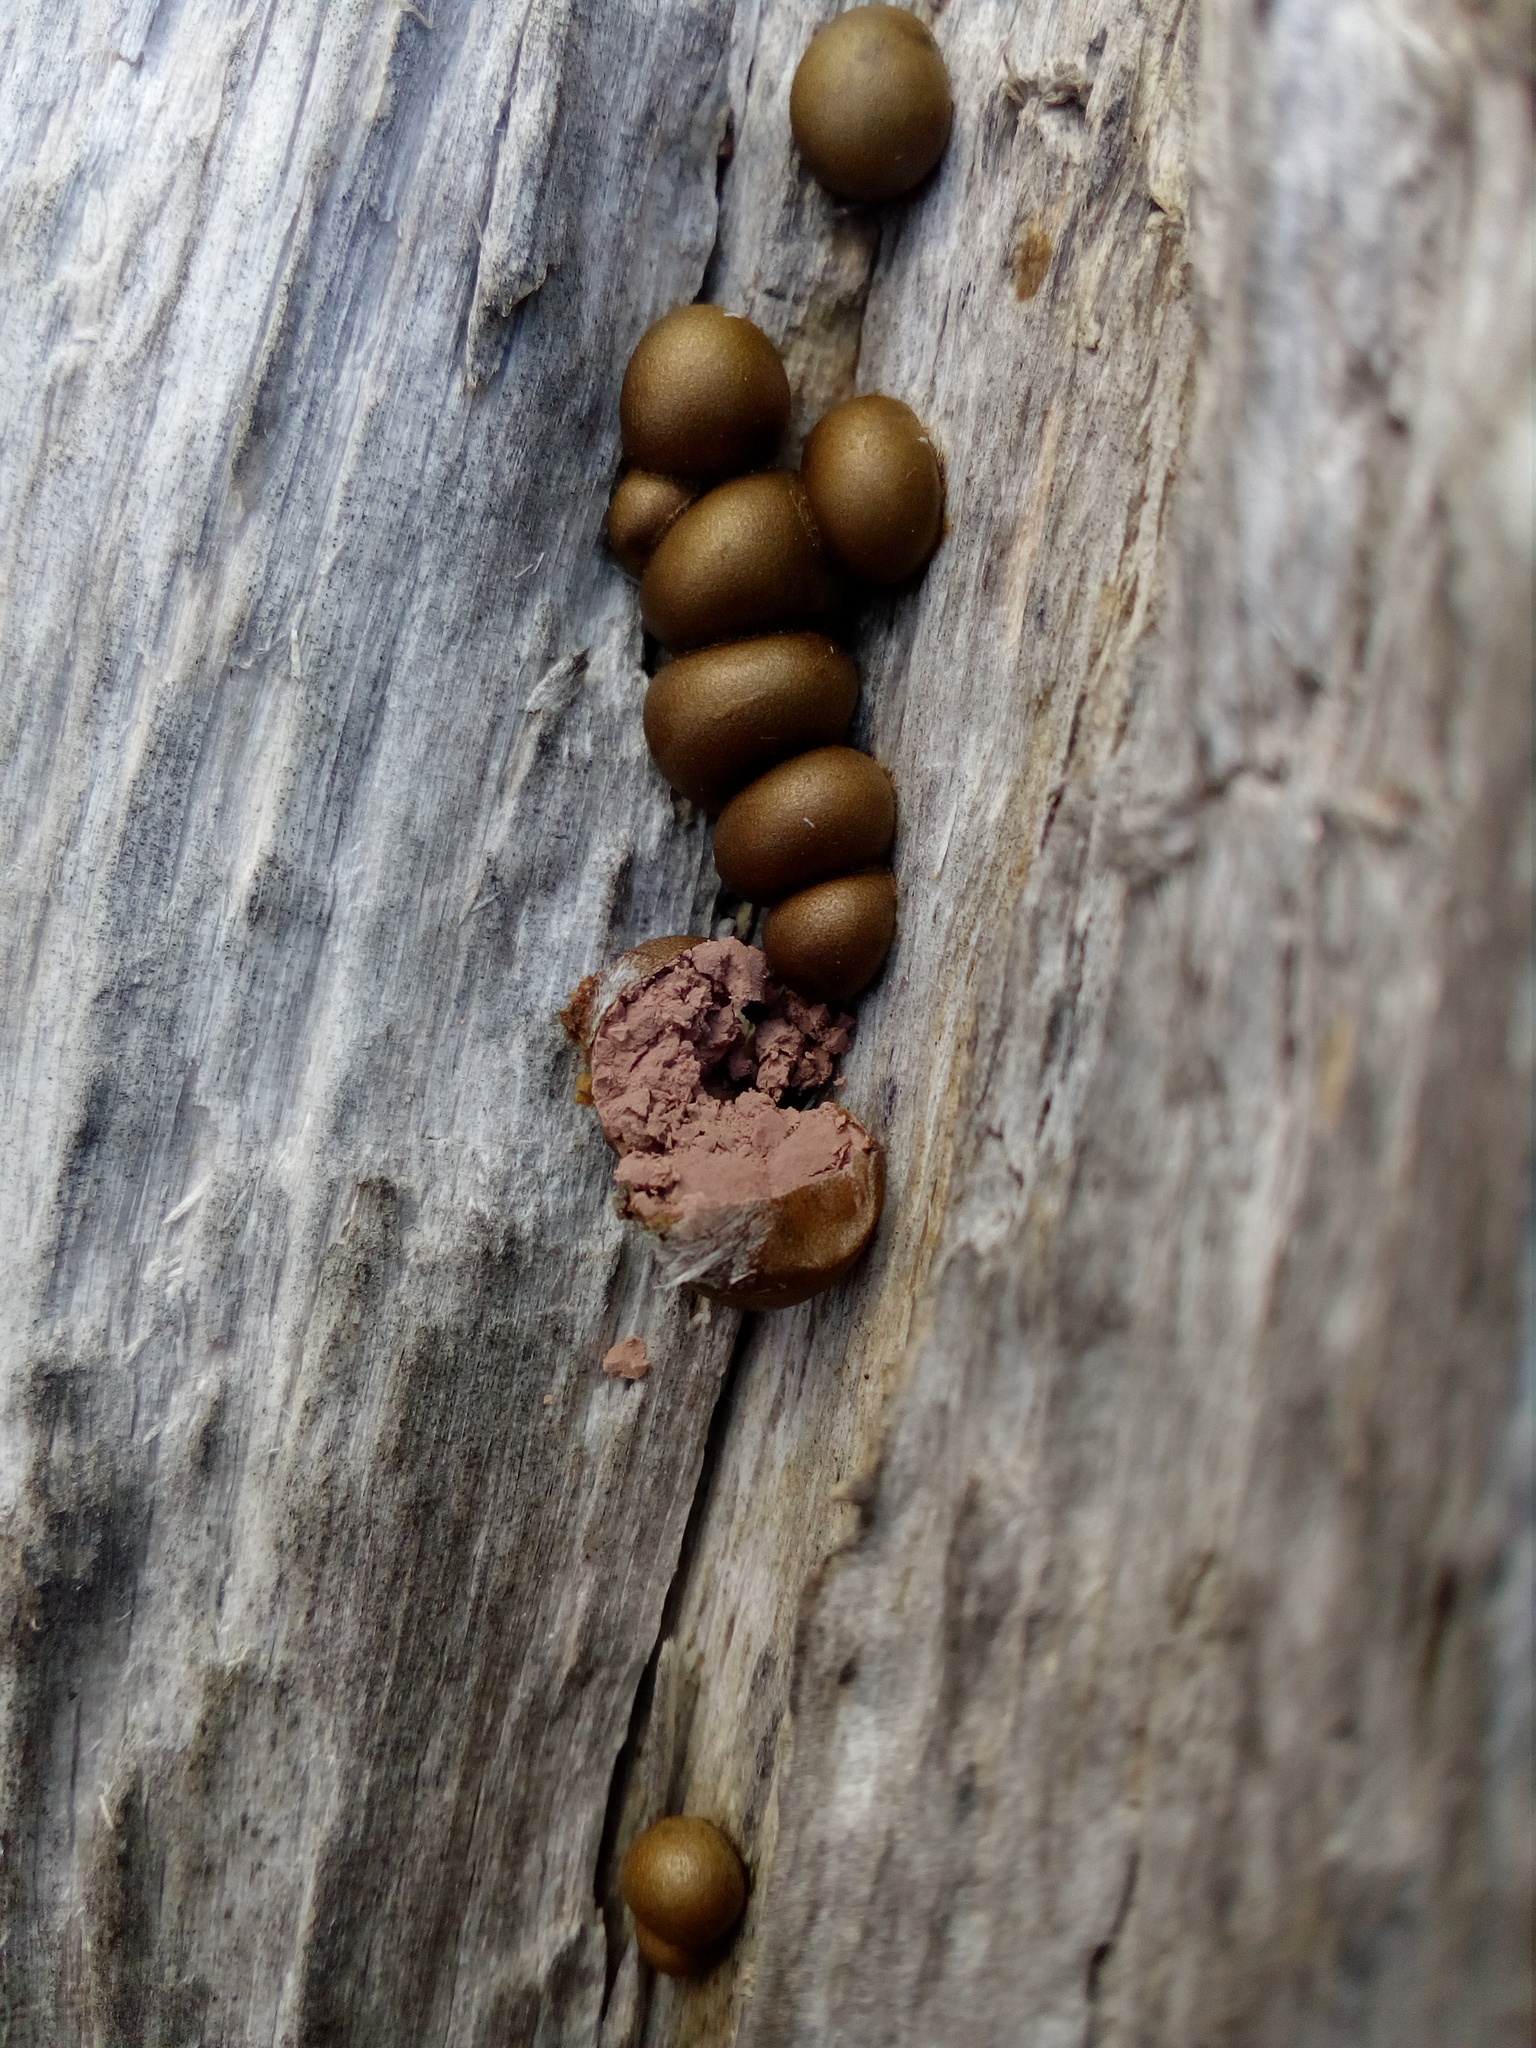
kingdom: Protozoa
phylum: Mycetozoa
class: Myxomycetes
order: Cribrariales
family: Tubiferaceae
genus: Lycogala
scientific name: Lycogala epidendrum
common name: Wolf's milk
